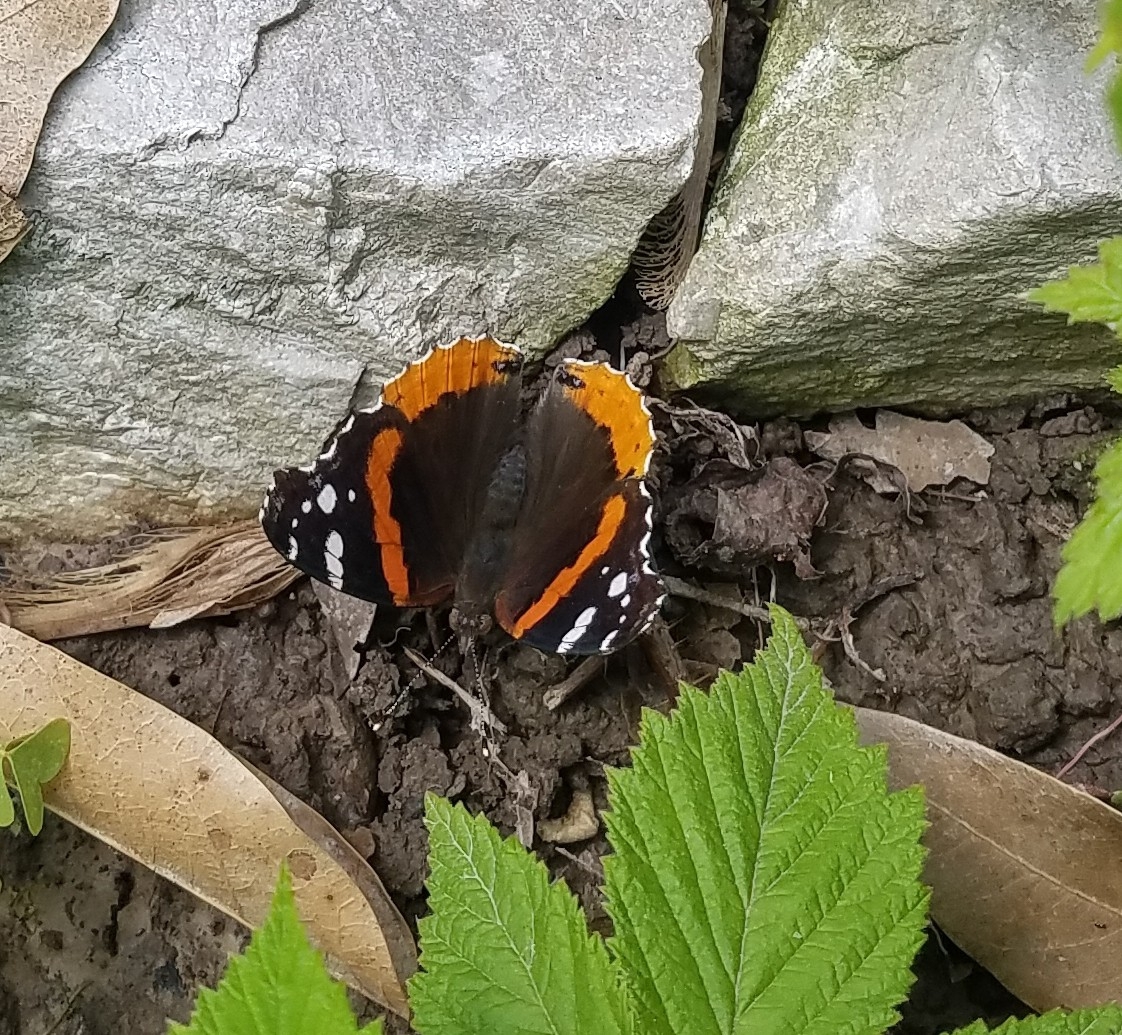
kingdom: Animalia
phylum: Arthropoda
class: Insecta
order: Lepidoptera
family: Nymphalidae
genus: Vanessa
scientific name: Vanessa atalanta
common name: Red admiral
